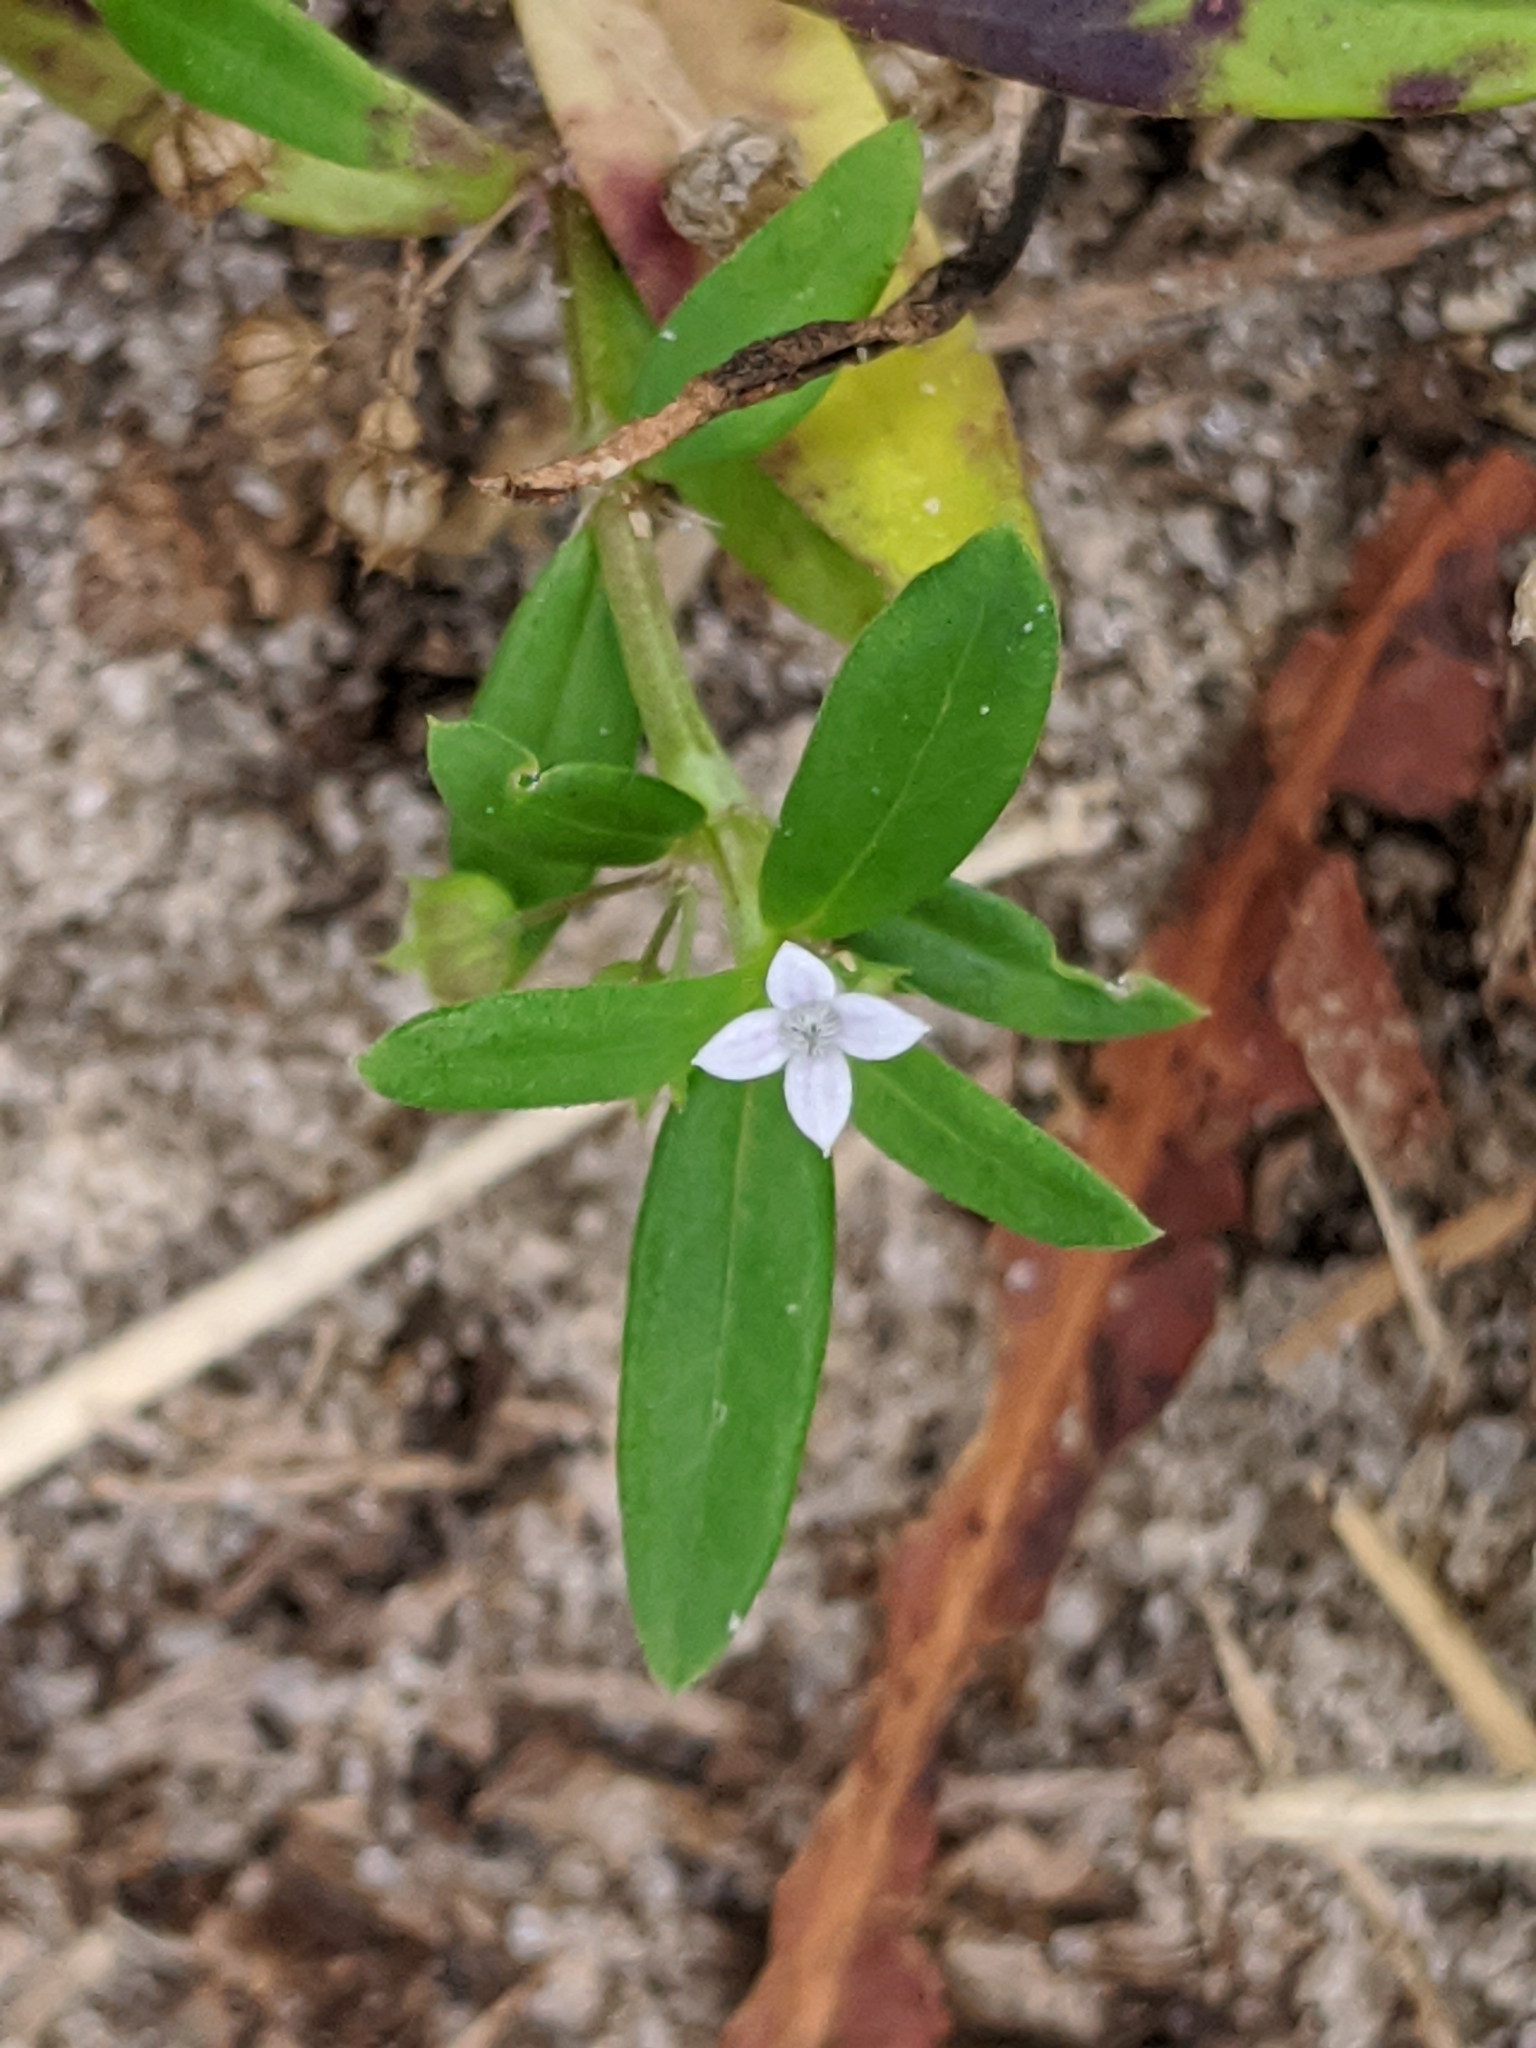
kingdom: Plantae
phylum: Tracheophyta
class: Magnoliopsida
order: Gentianales
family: Rubiaceae
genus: Oldenlandia
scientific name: Oldenlandia corymbosa
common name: Flat-top mille graines
